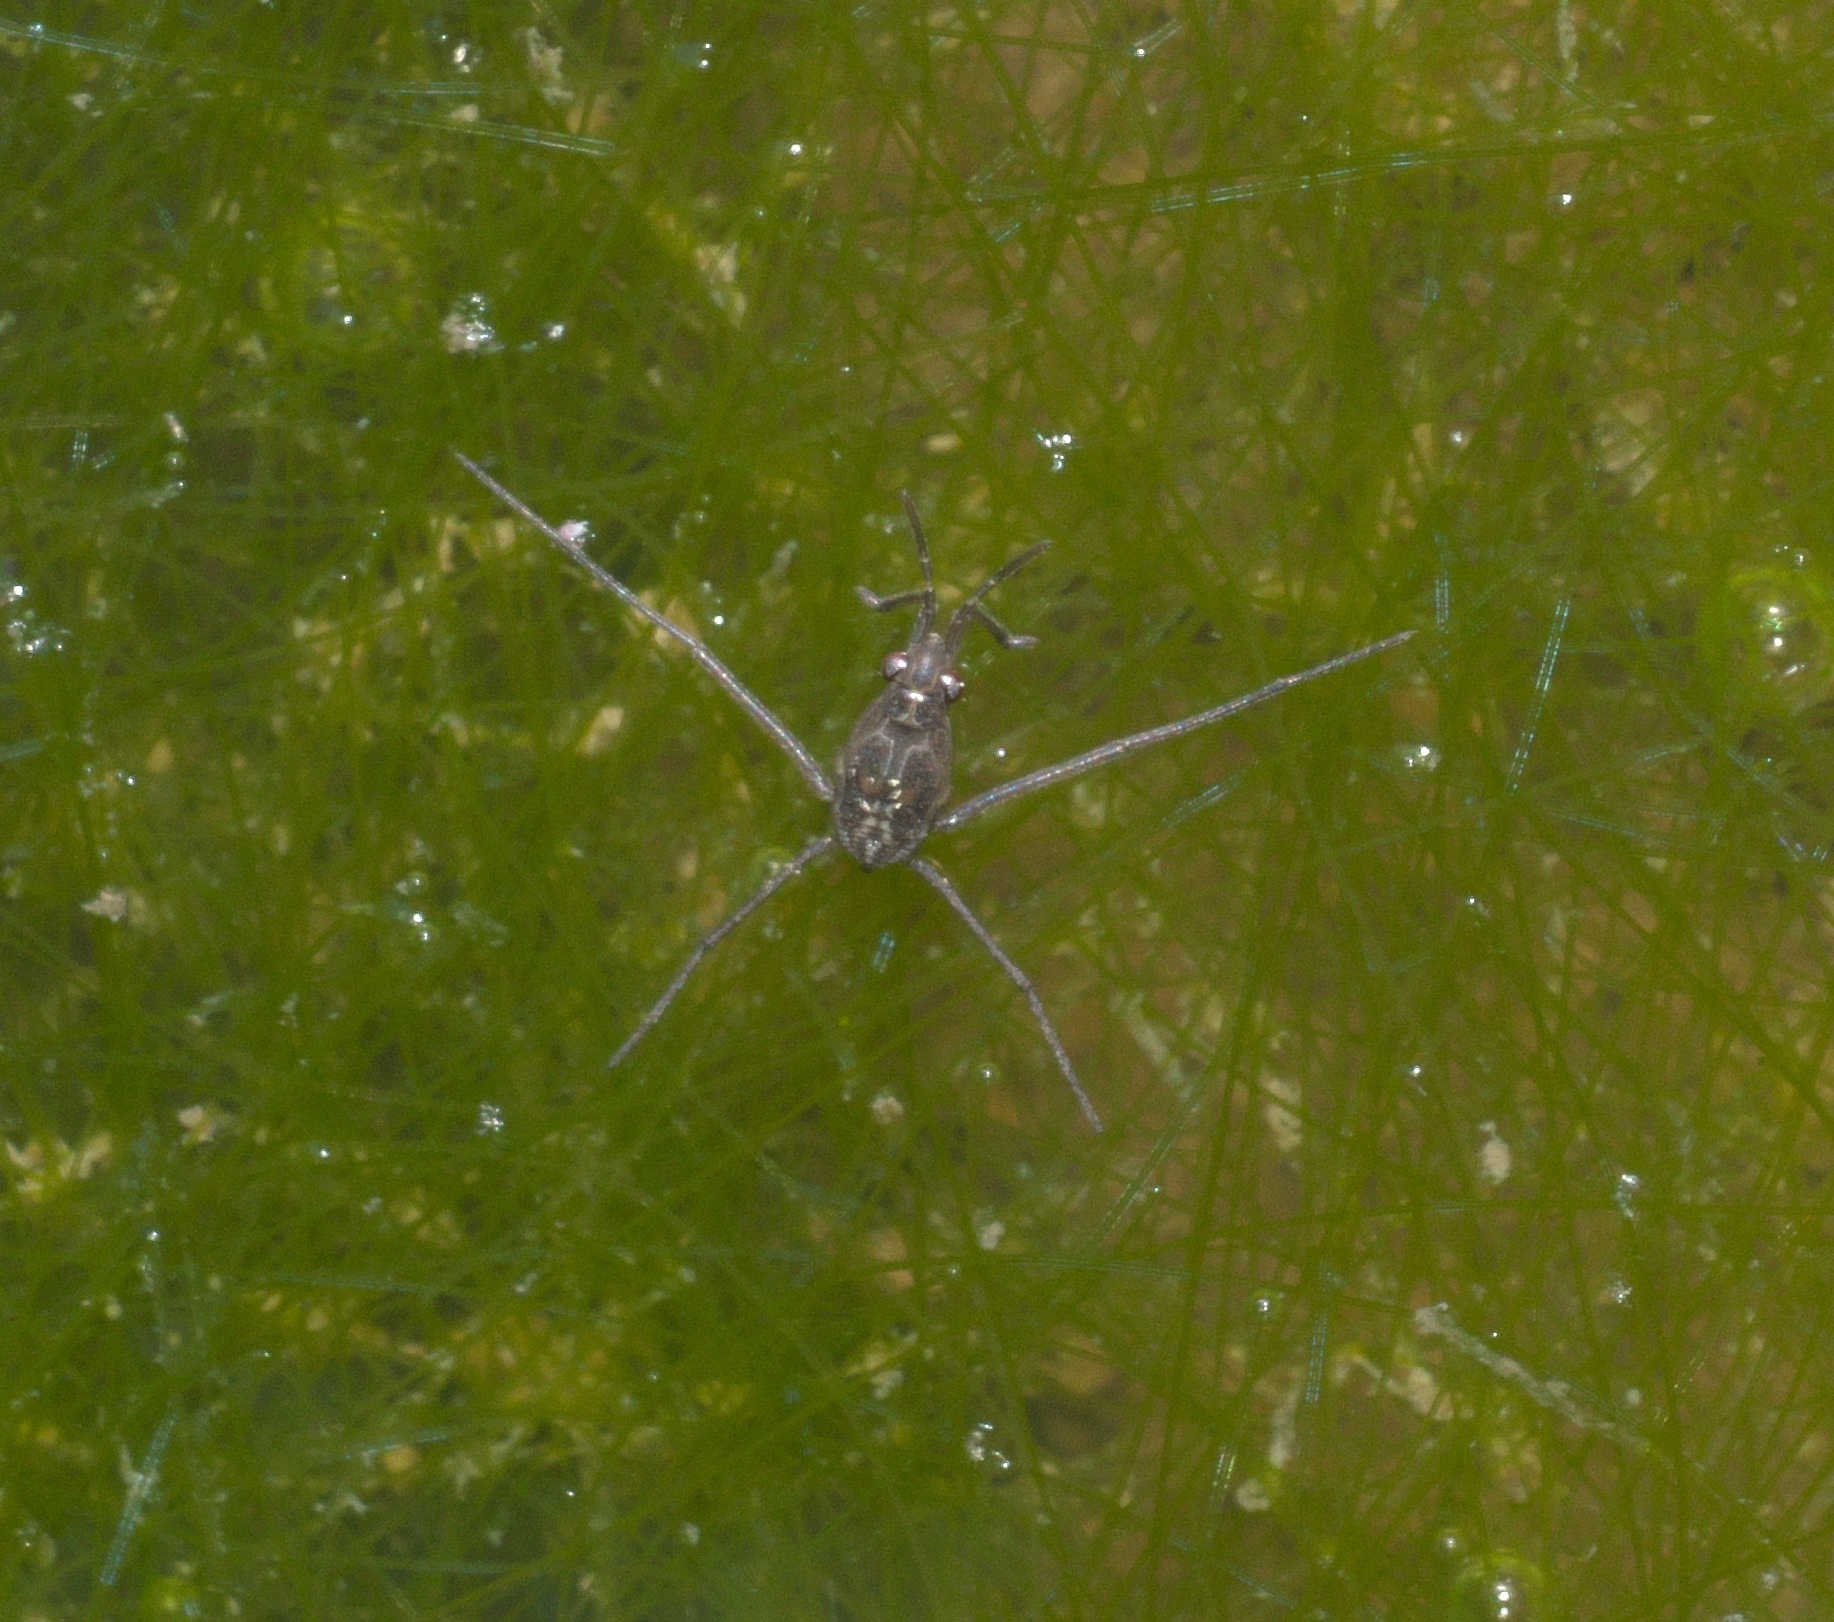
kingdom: Animalia
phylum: Arthropoda
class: Insecta
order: Hemiptera
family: Gerridae
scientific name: Gerridae
